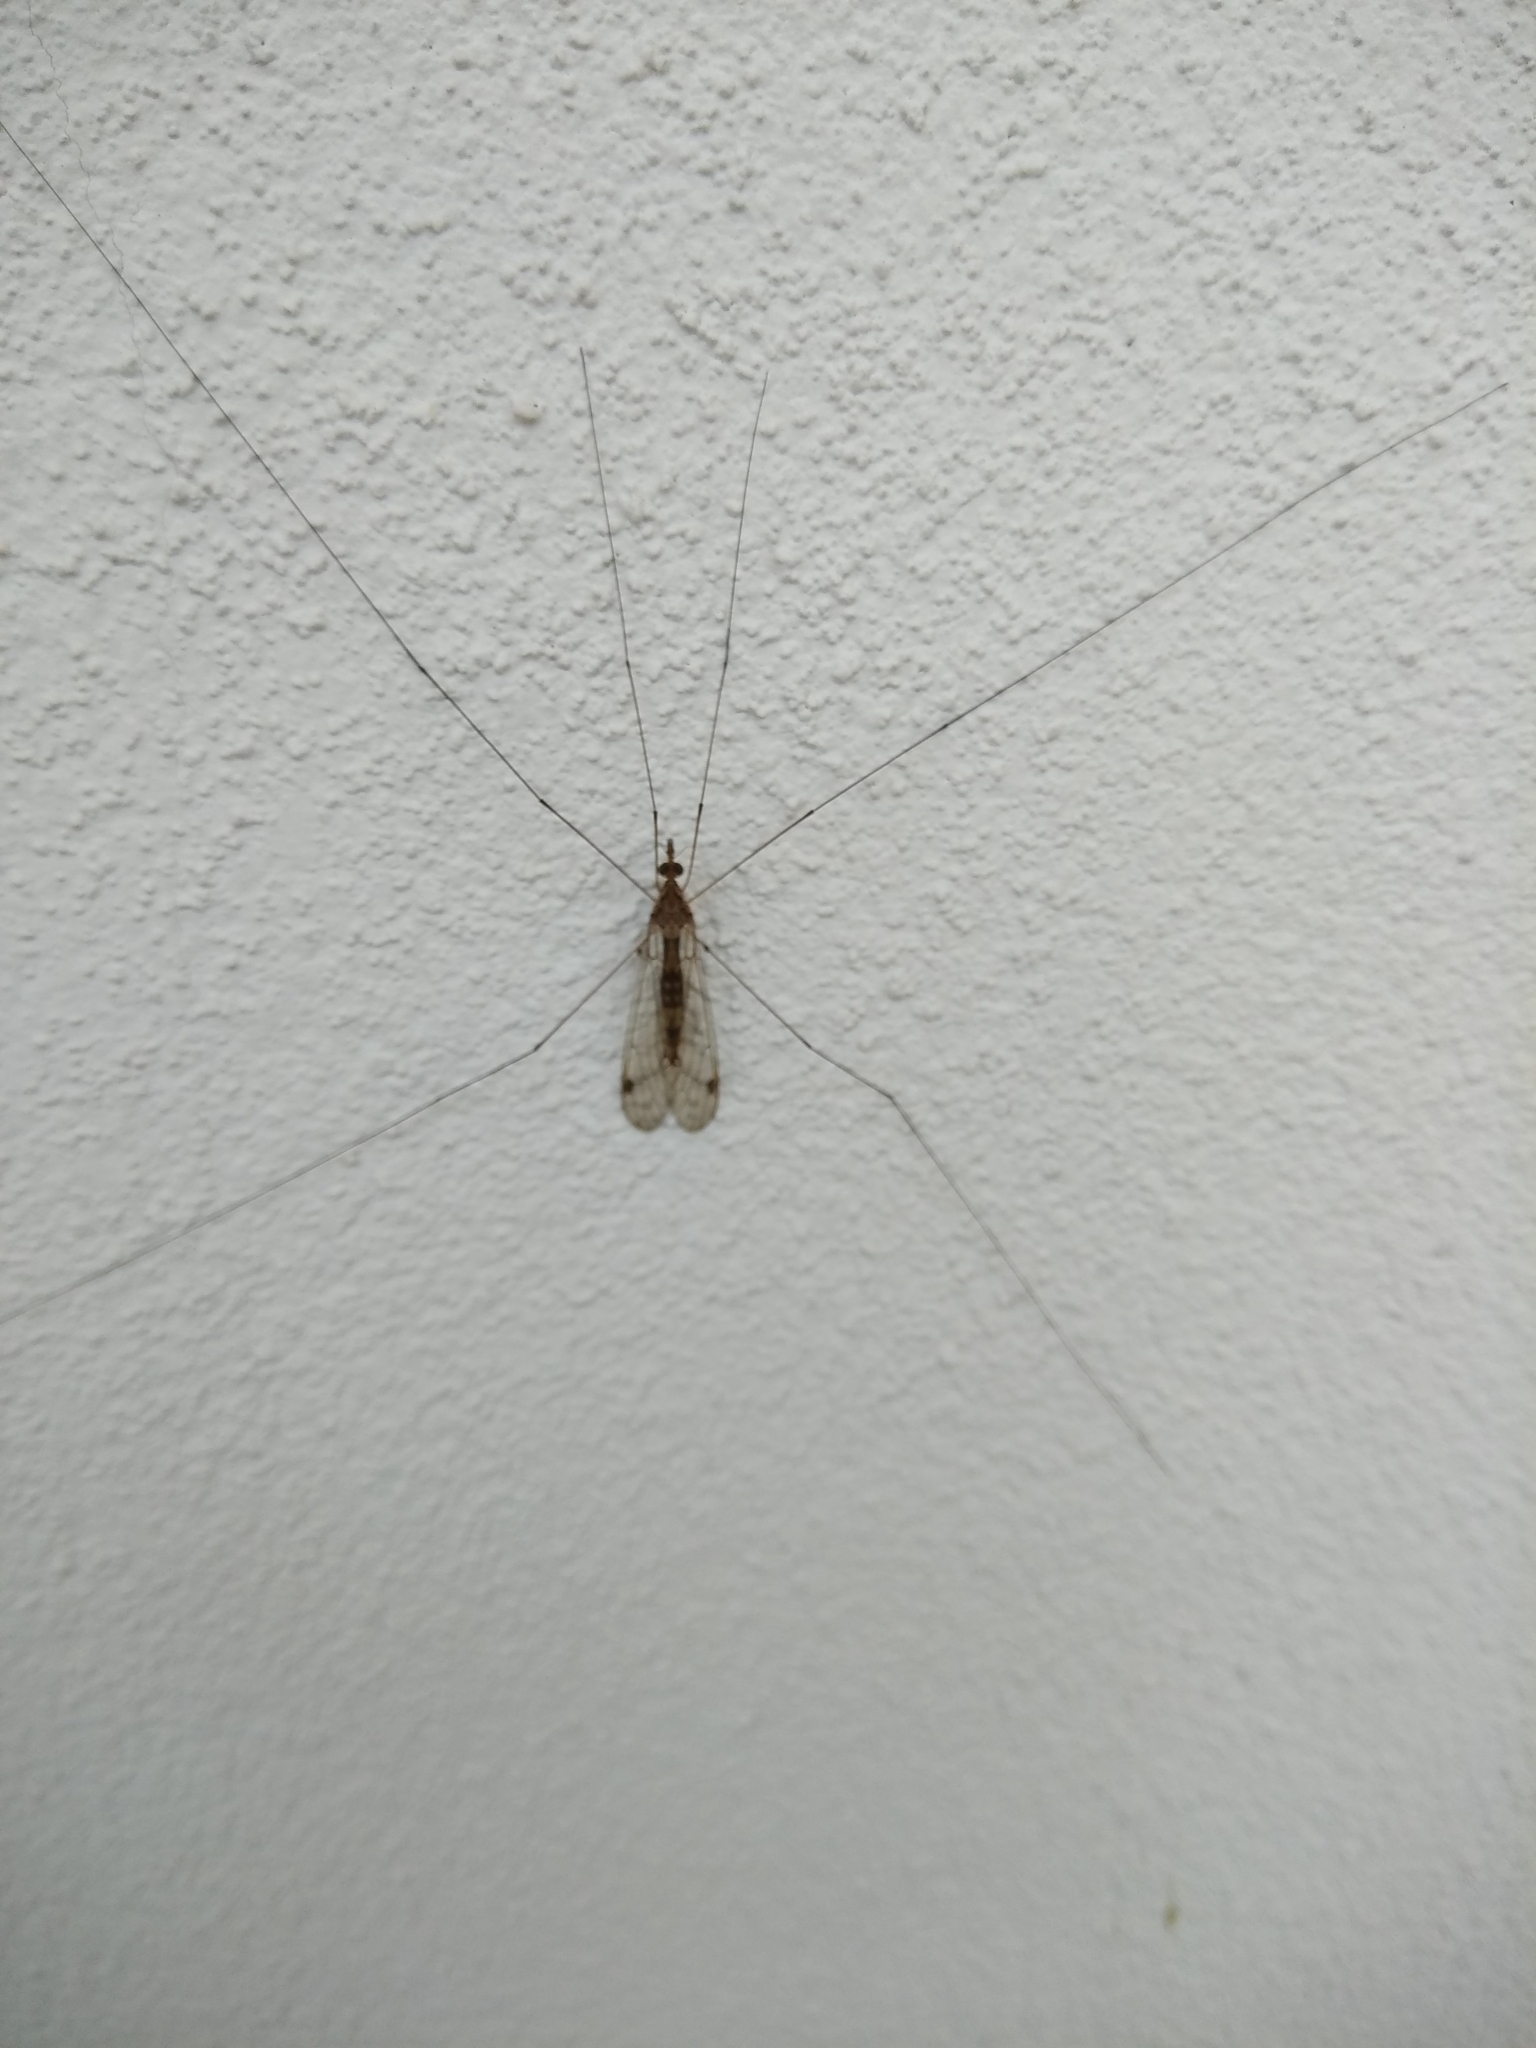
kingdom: Animalia
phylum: Arthropoda
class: Insecta
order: Diptera
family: Tipulidae
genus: Maekistocera
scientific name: Maekistocera longipennis
